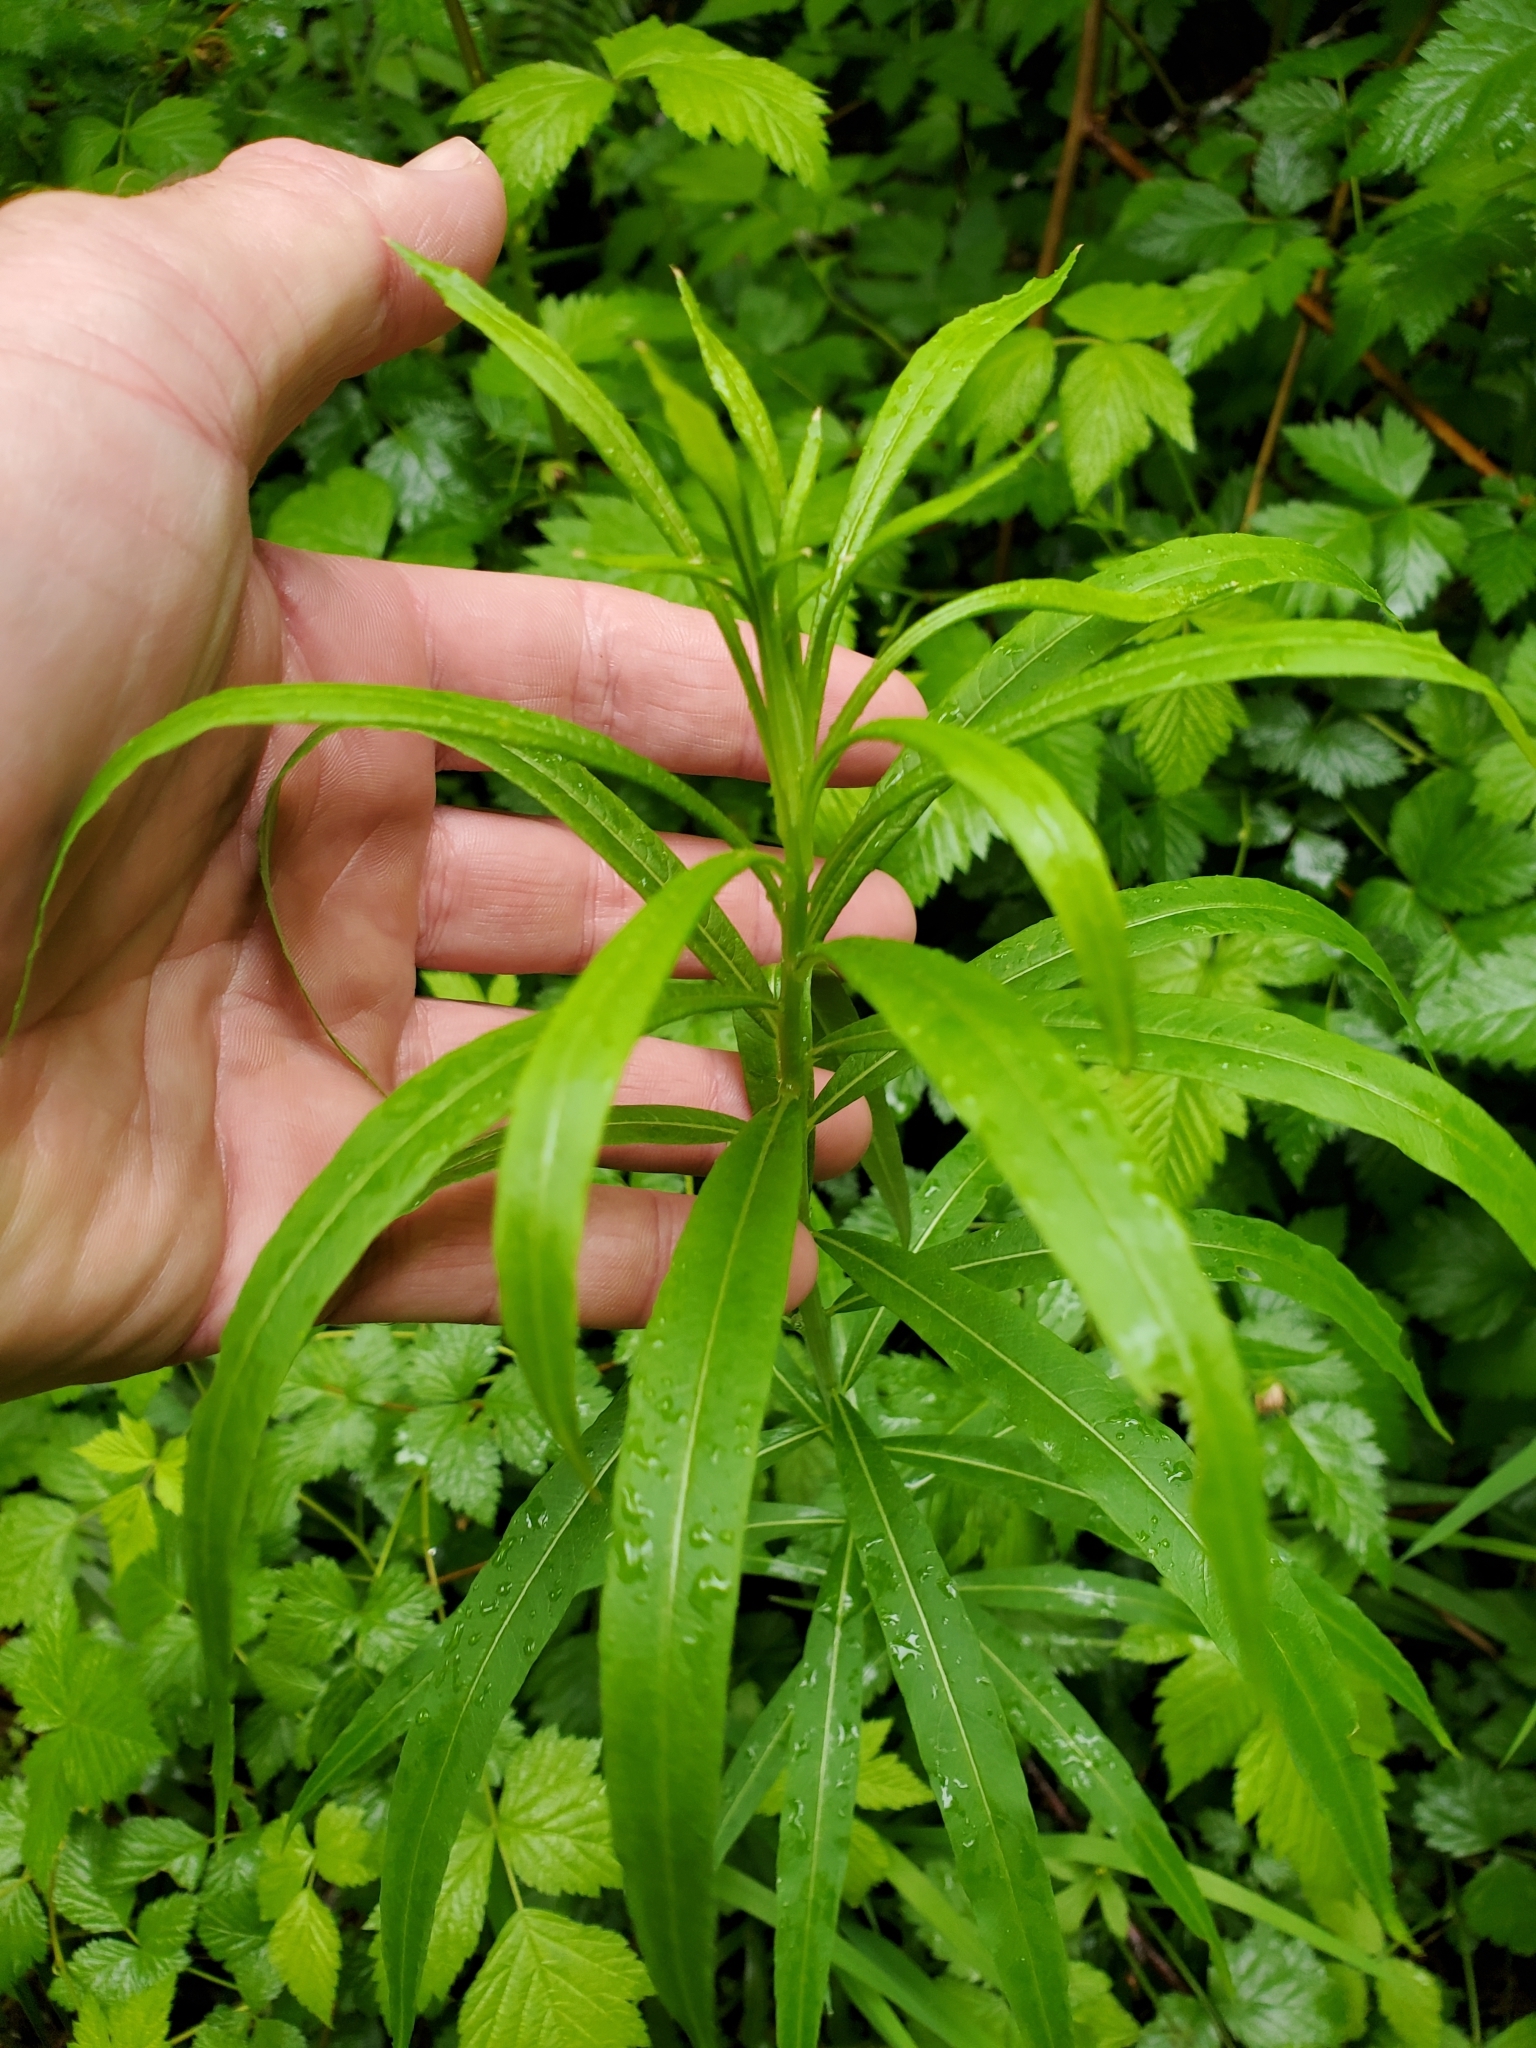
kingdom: Plantae
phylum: Tracheophyta
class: Magnoliopsida
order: Myrtales
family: Onagraceae
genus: Chamaenerion
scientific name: Chamaenerion angustifolium
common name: Fireweed
